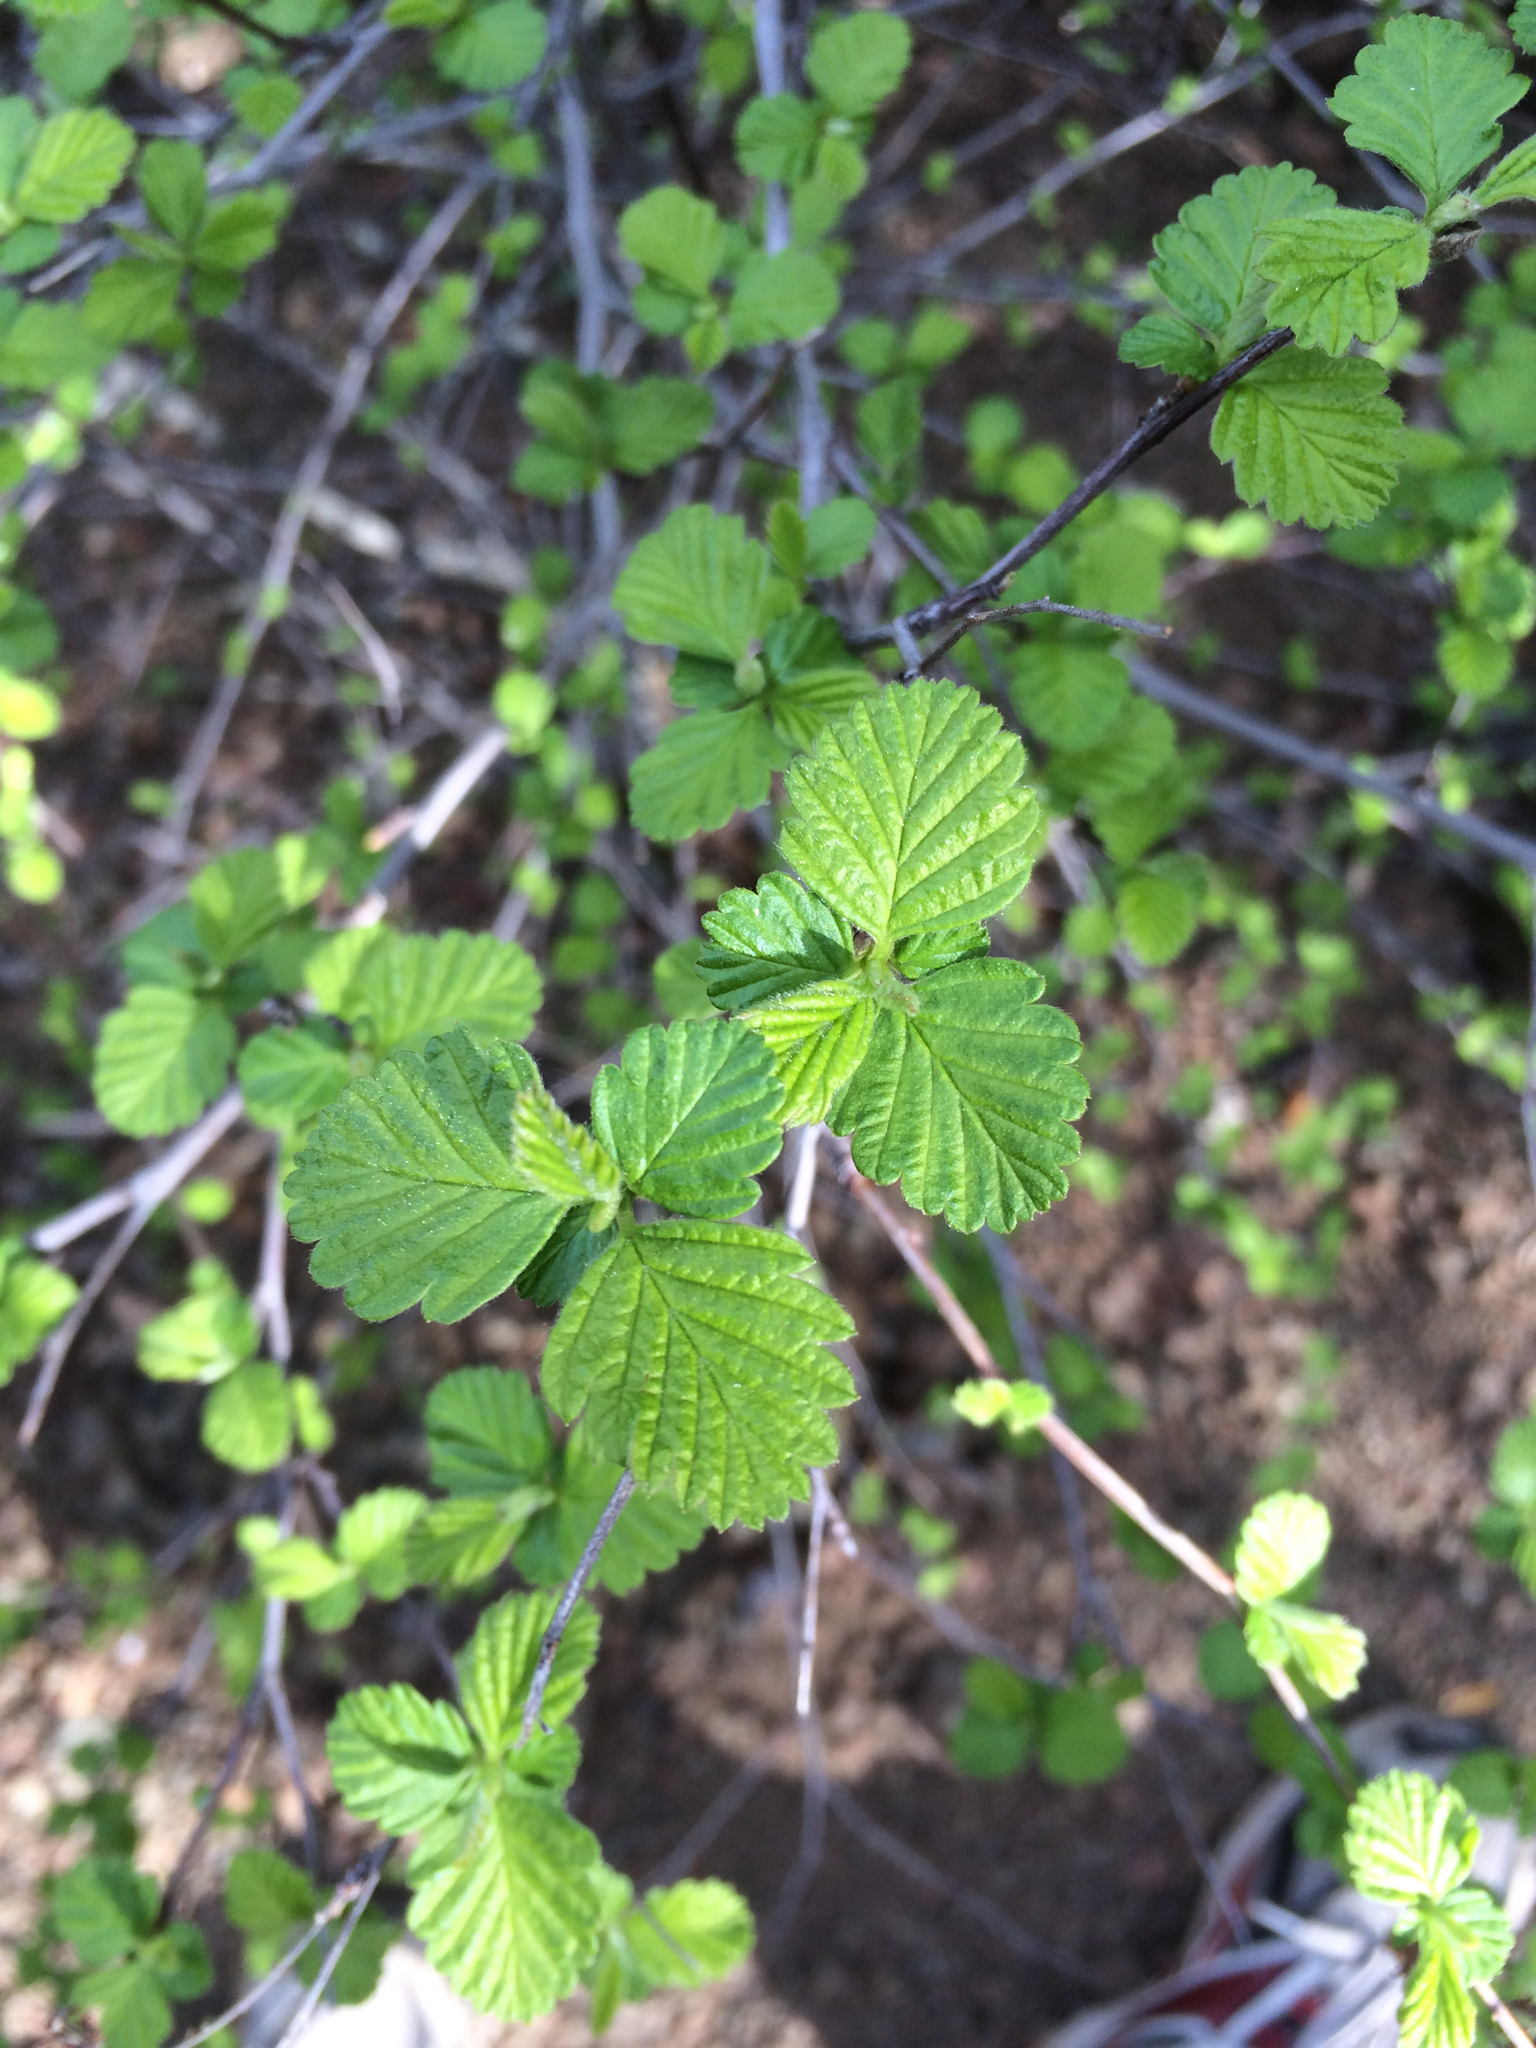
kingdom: Plantae
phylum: Tracheophyta
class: Magnoliopsida
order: Rosales
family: Rosaceae
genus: Holodiscus
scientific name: Holodiscus discolor
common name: Oceanspray
